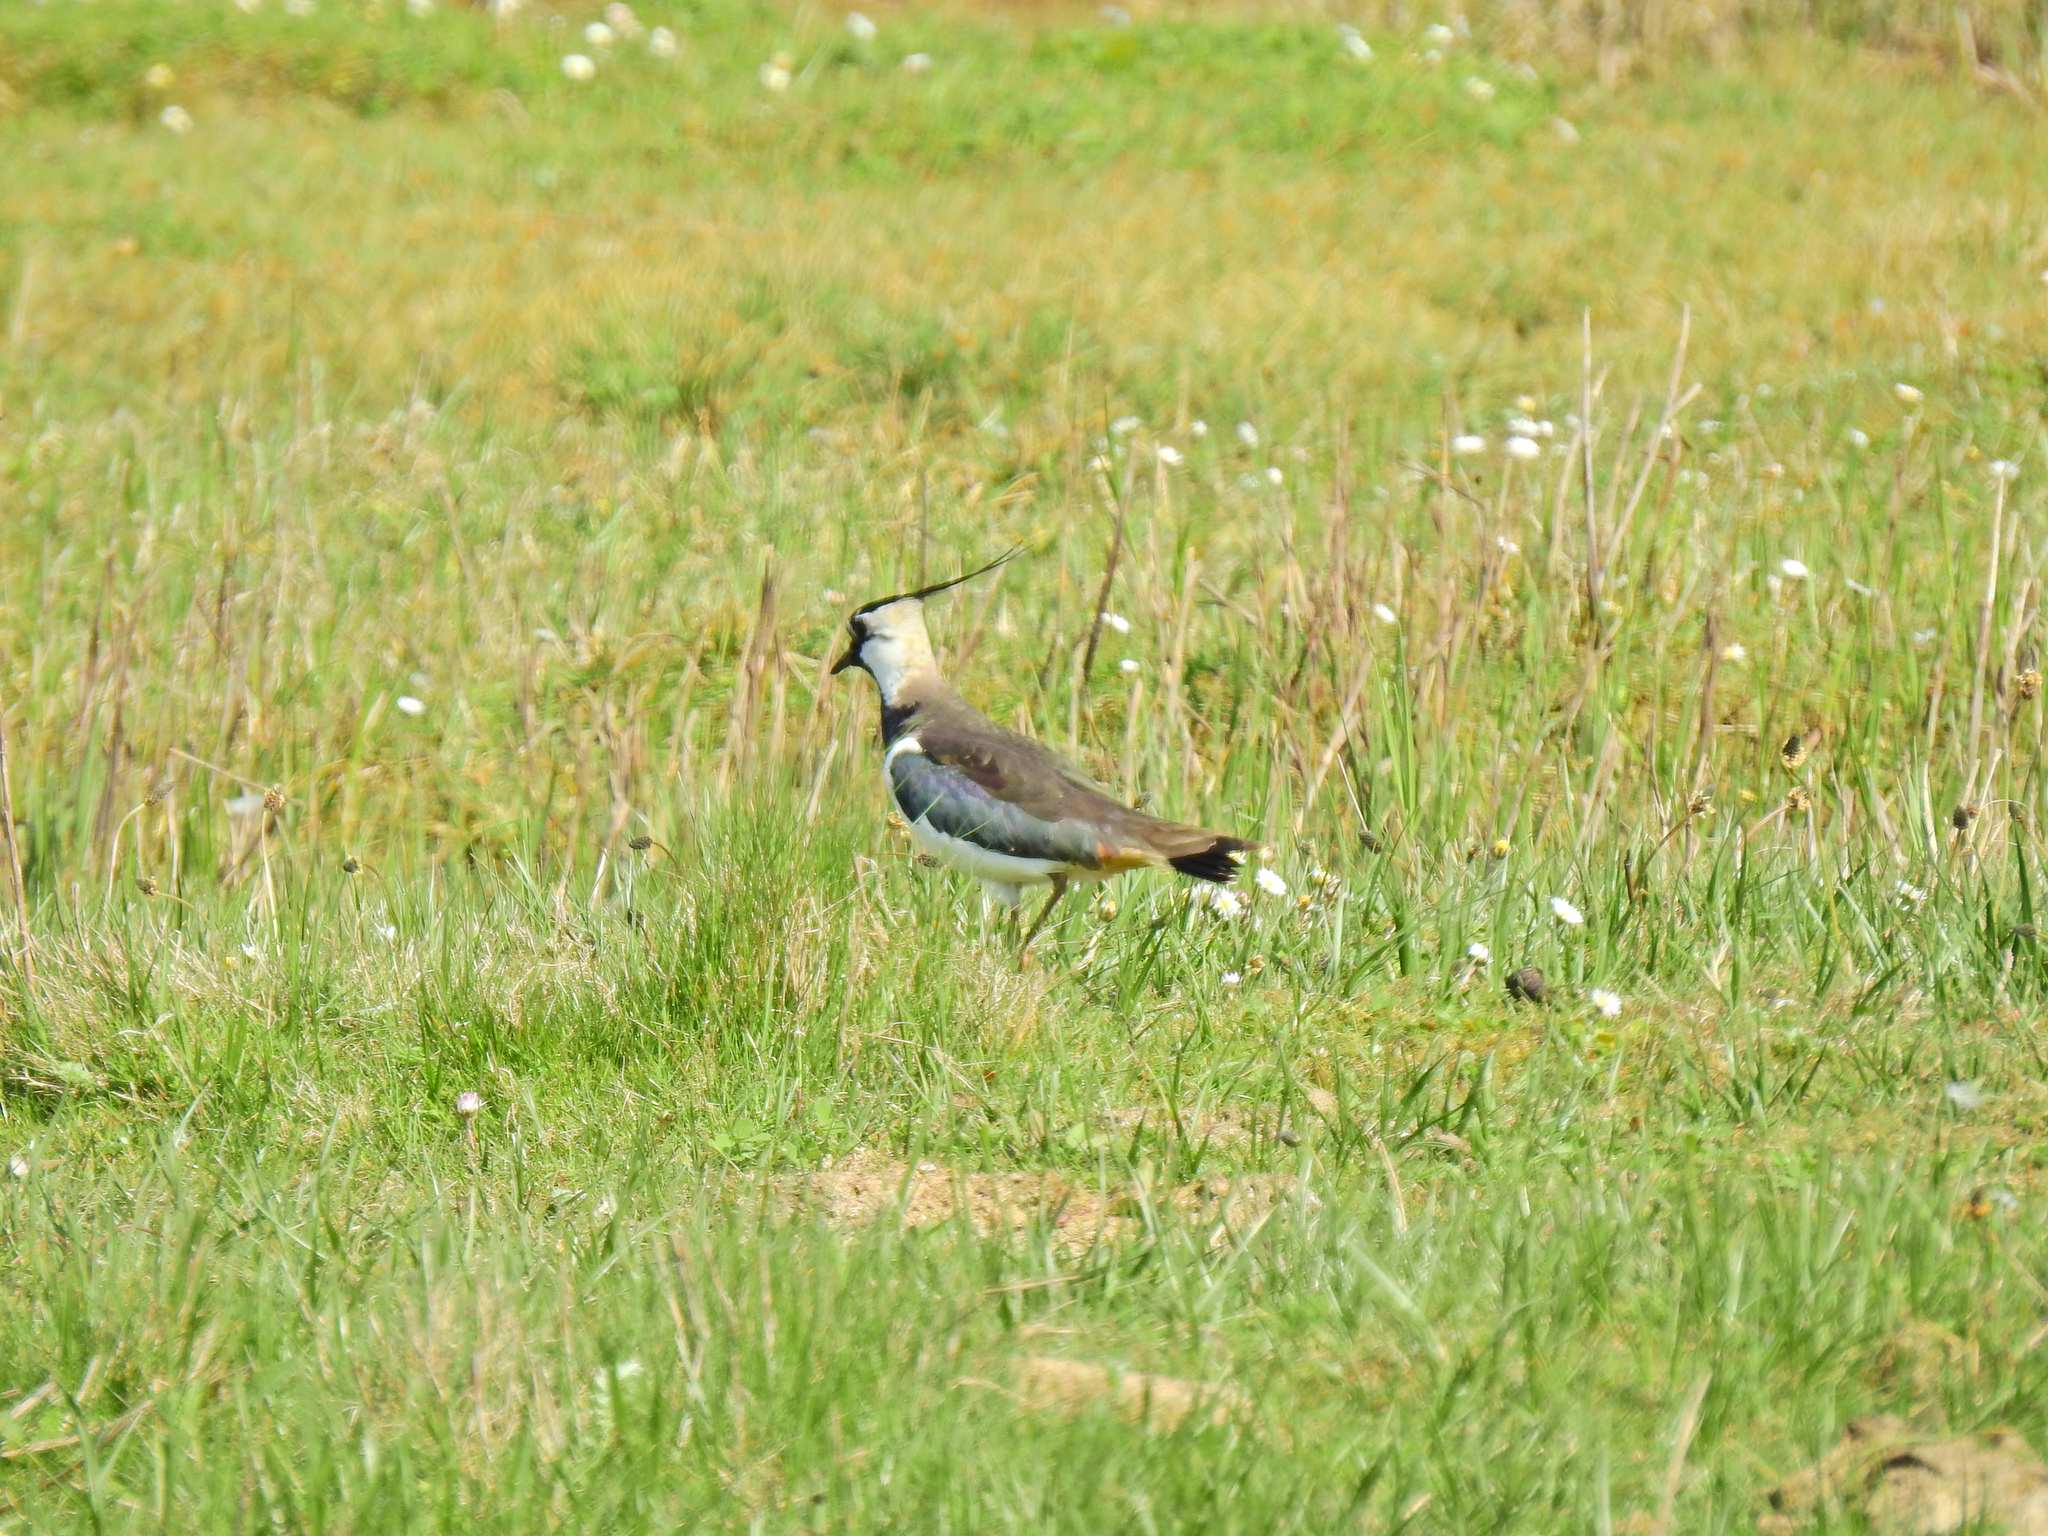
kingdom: Animalia
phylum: Chordata
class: Aves
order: Charadriiformes
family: Charadriidae
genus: Vanellus
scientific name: Vanellus vanellus
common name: Northern lapwing
